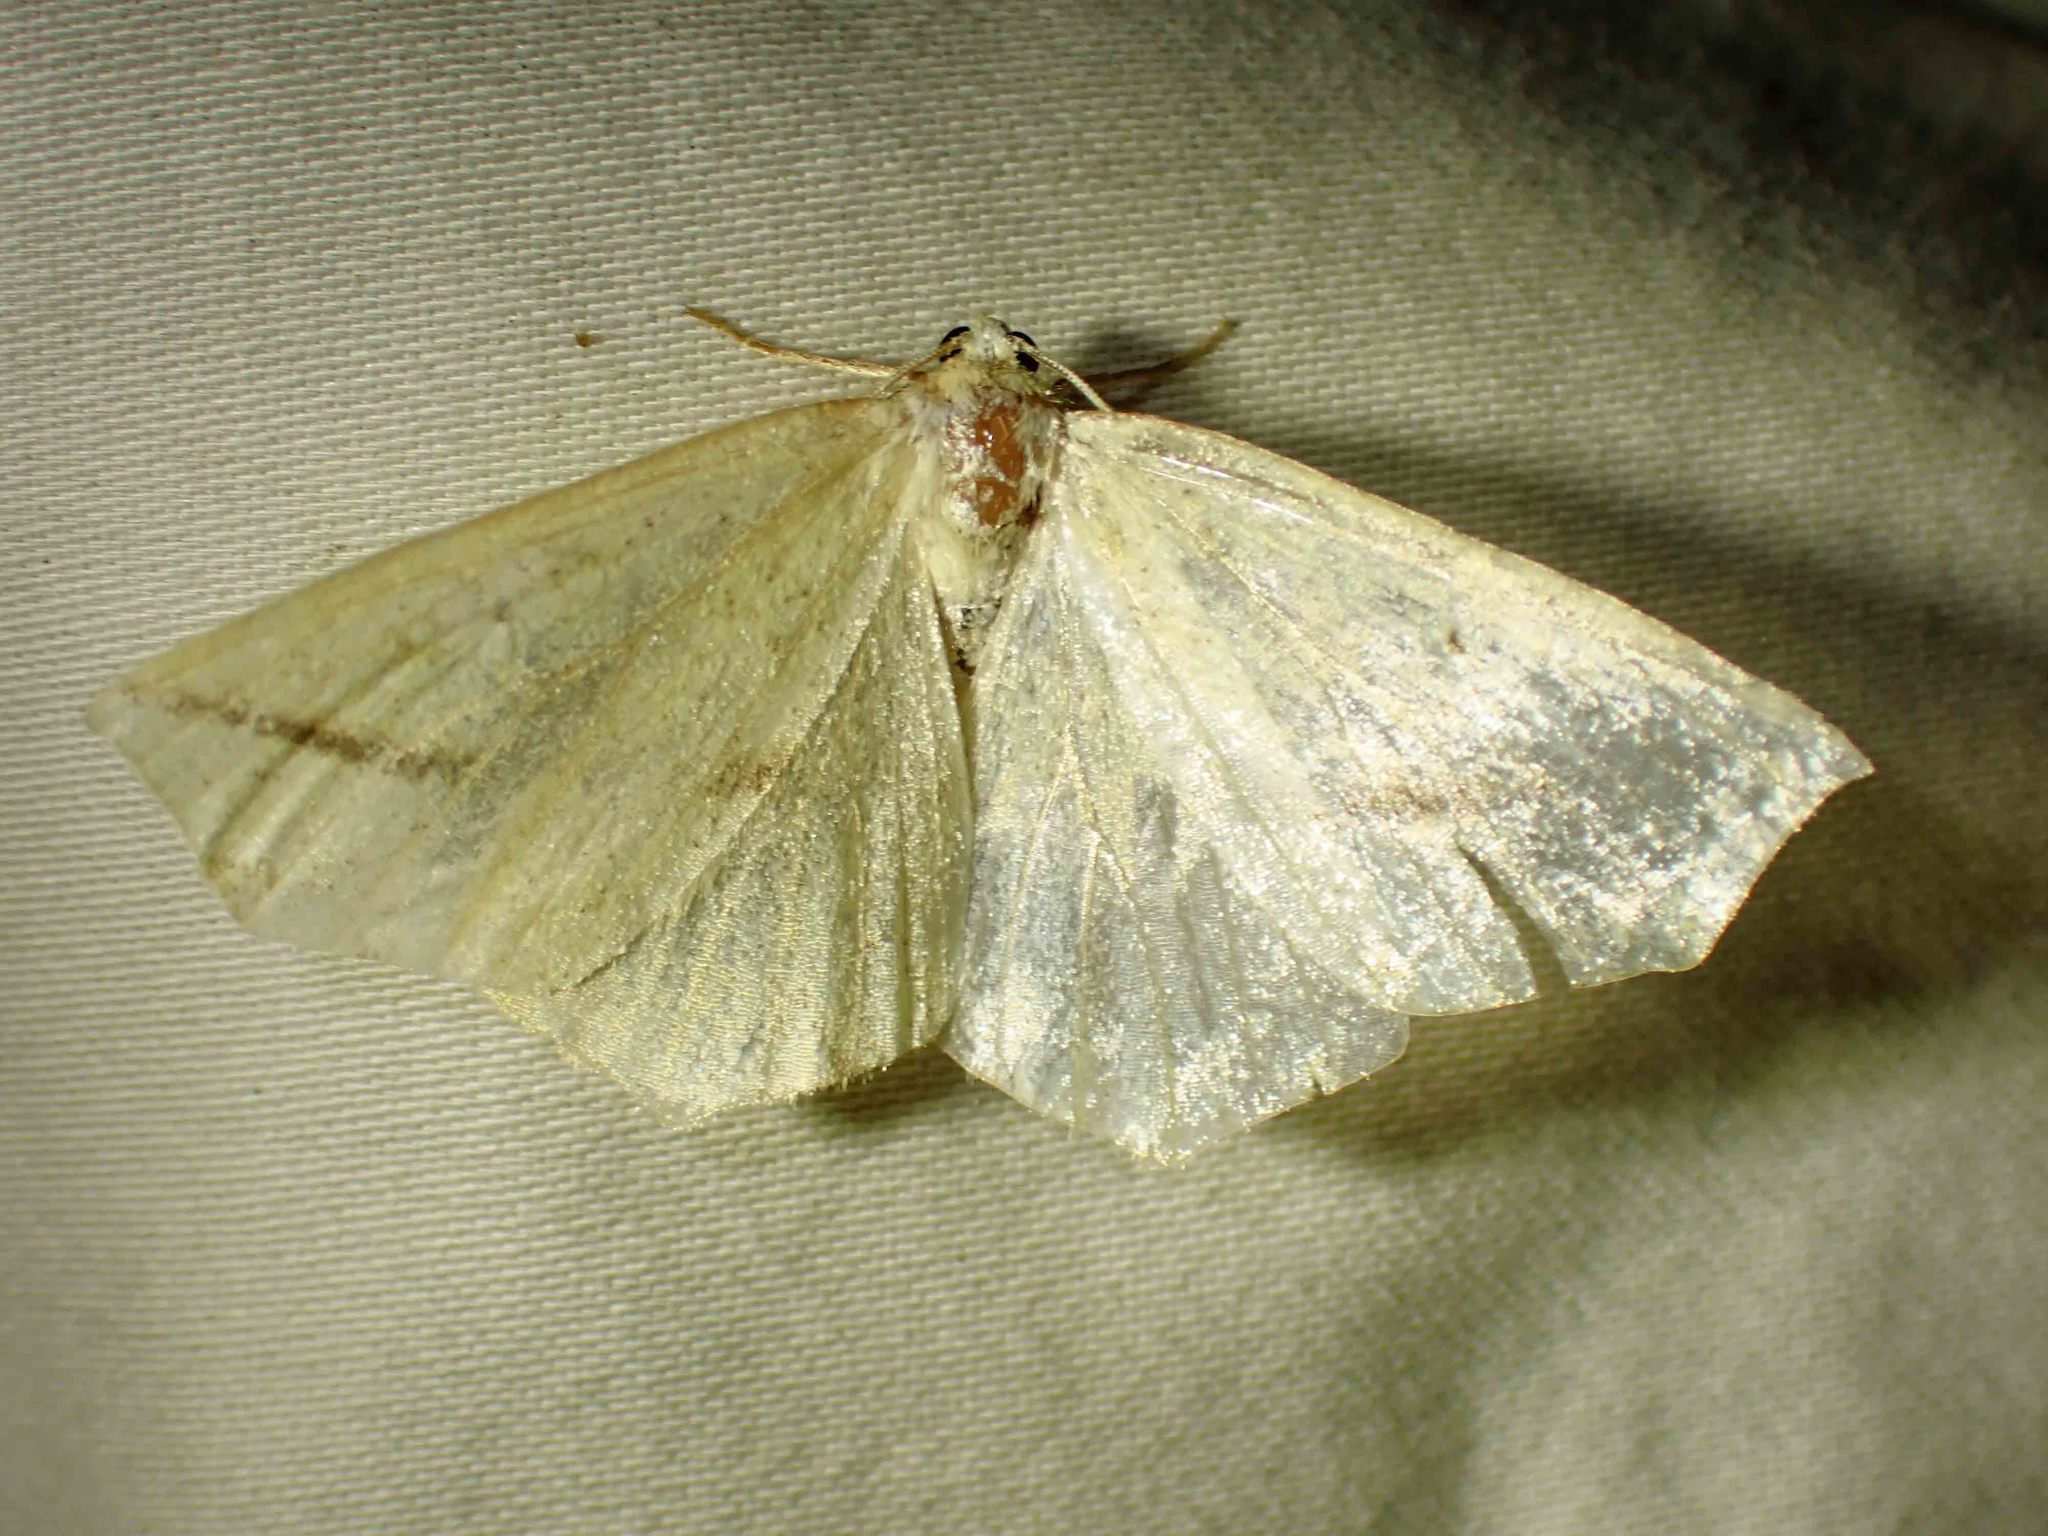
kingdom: Animalia
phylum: Arthropoda
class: Insecta
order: Lepidoptera
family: Geometridae
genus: Tetracis
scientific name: Tetracis crocallata
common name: Yellow slant-line
